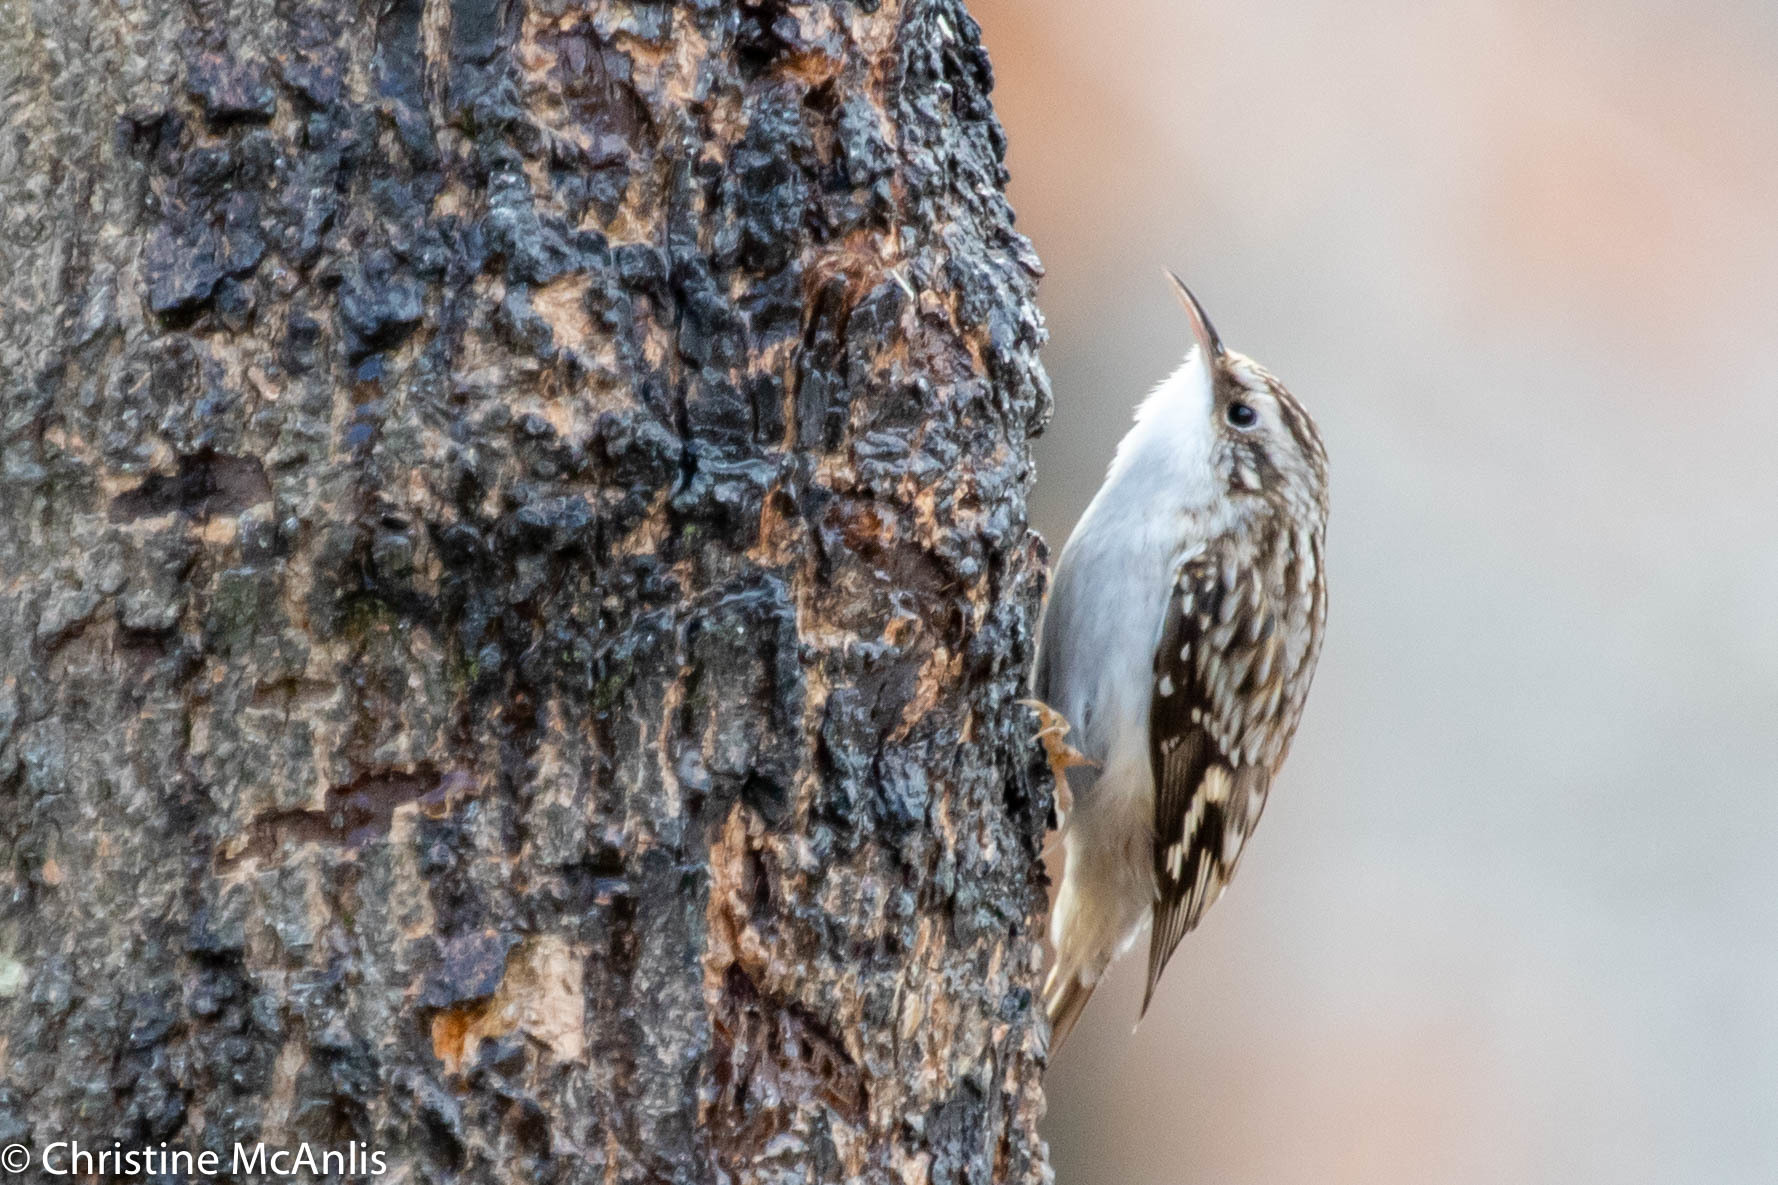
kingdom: Animalia
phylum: Chordata
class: Aves
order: Passeriformes
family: Certhiidae
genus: Certhia
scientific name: Certhia americana
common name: Brown creeper
